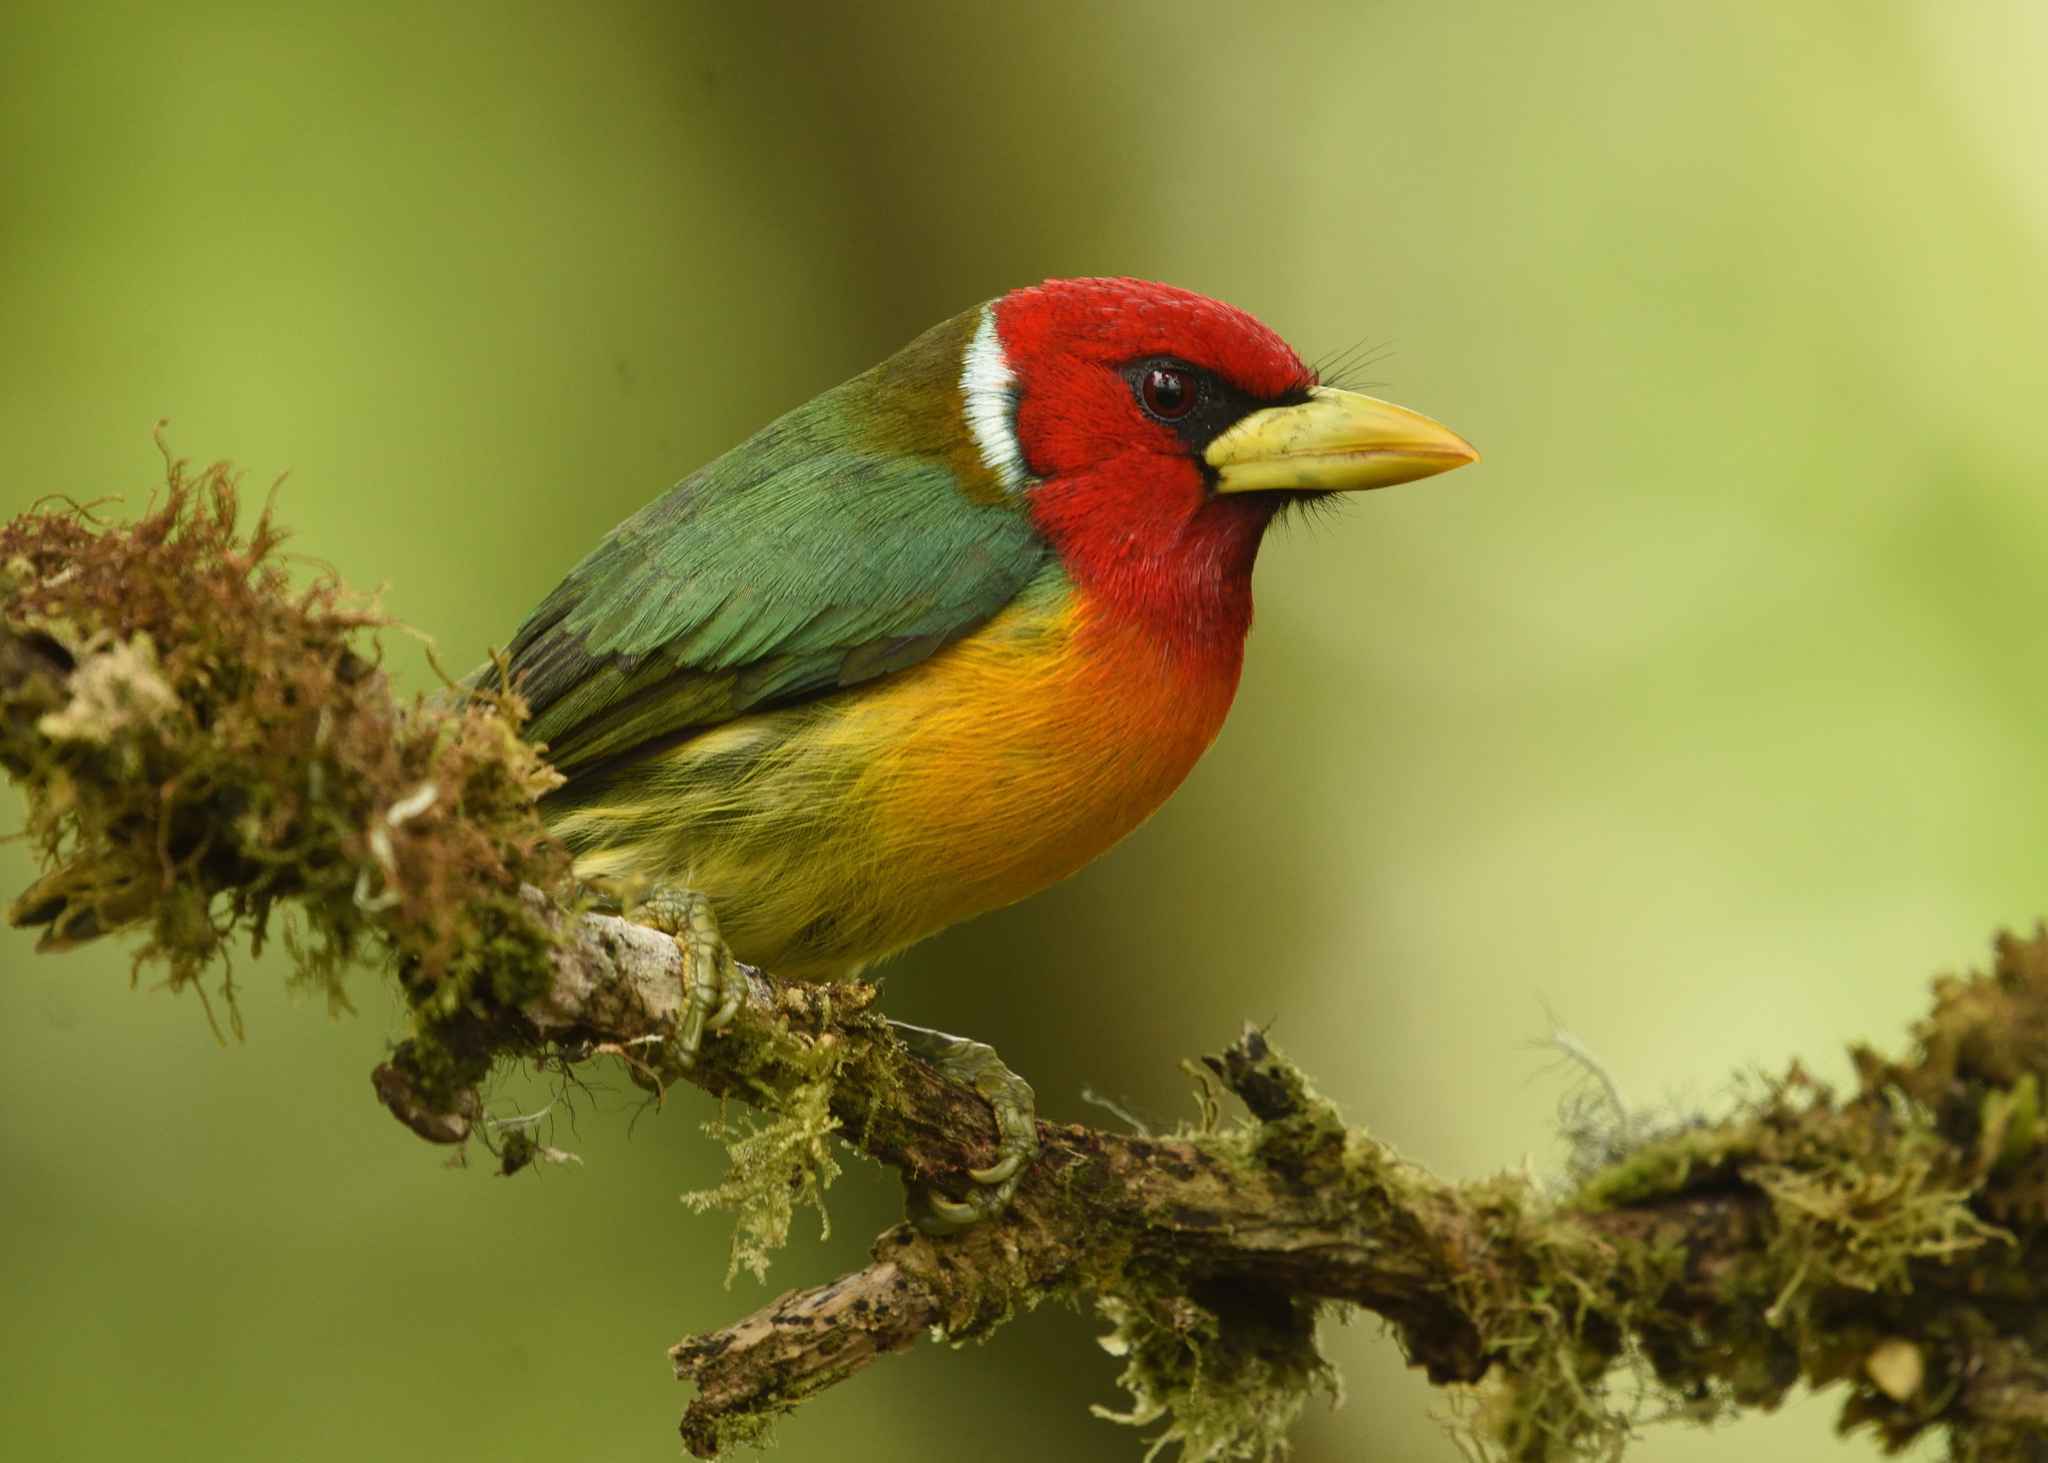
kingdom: Animalia
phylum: Chordata
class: Aves
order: Piciformes
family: Capitonidae
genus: Eubucco
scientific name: Eubucco bourcierii
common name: Red-headed barbet
